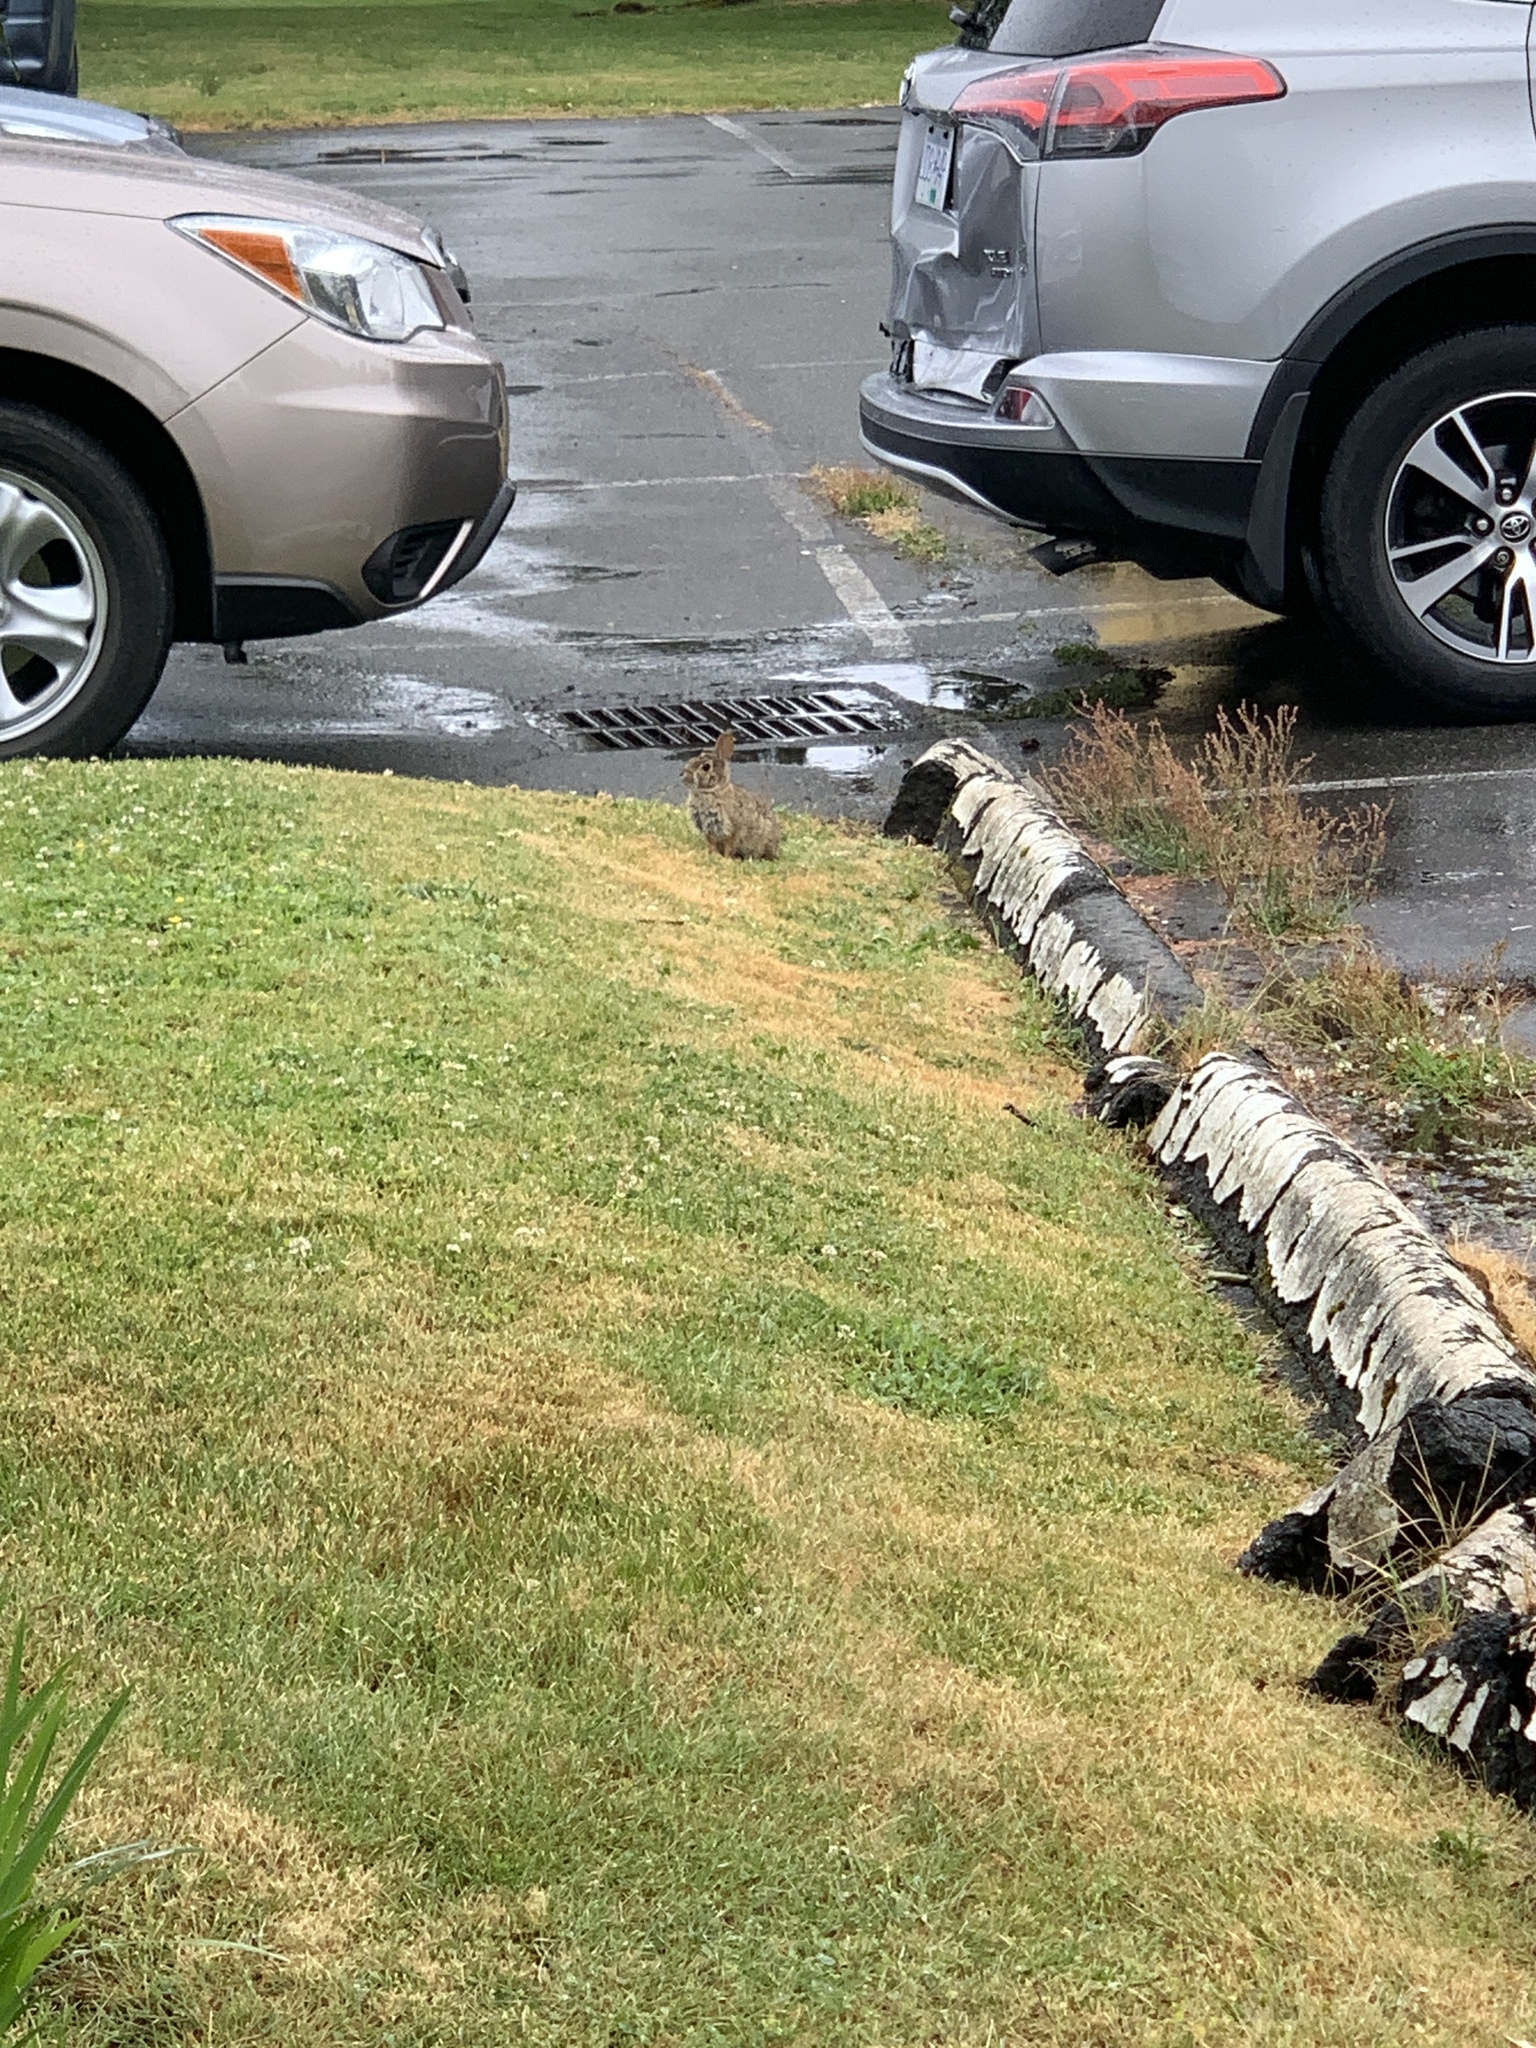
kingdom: Animalia
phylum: Chordata
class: Mammalia
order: Lagomorpha
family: Leporidae
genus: Sylvilagus
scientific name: Sylvilagus floridanus
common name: Eastern cottontail
